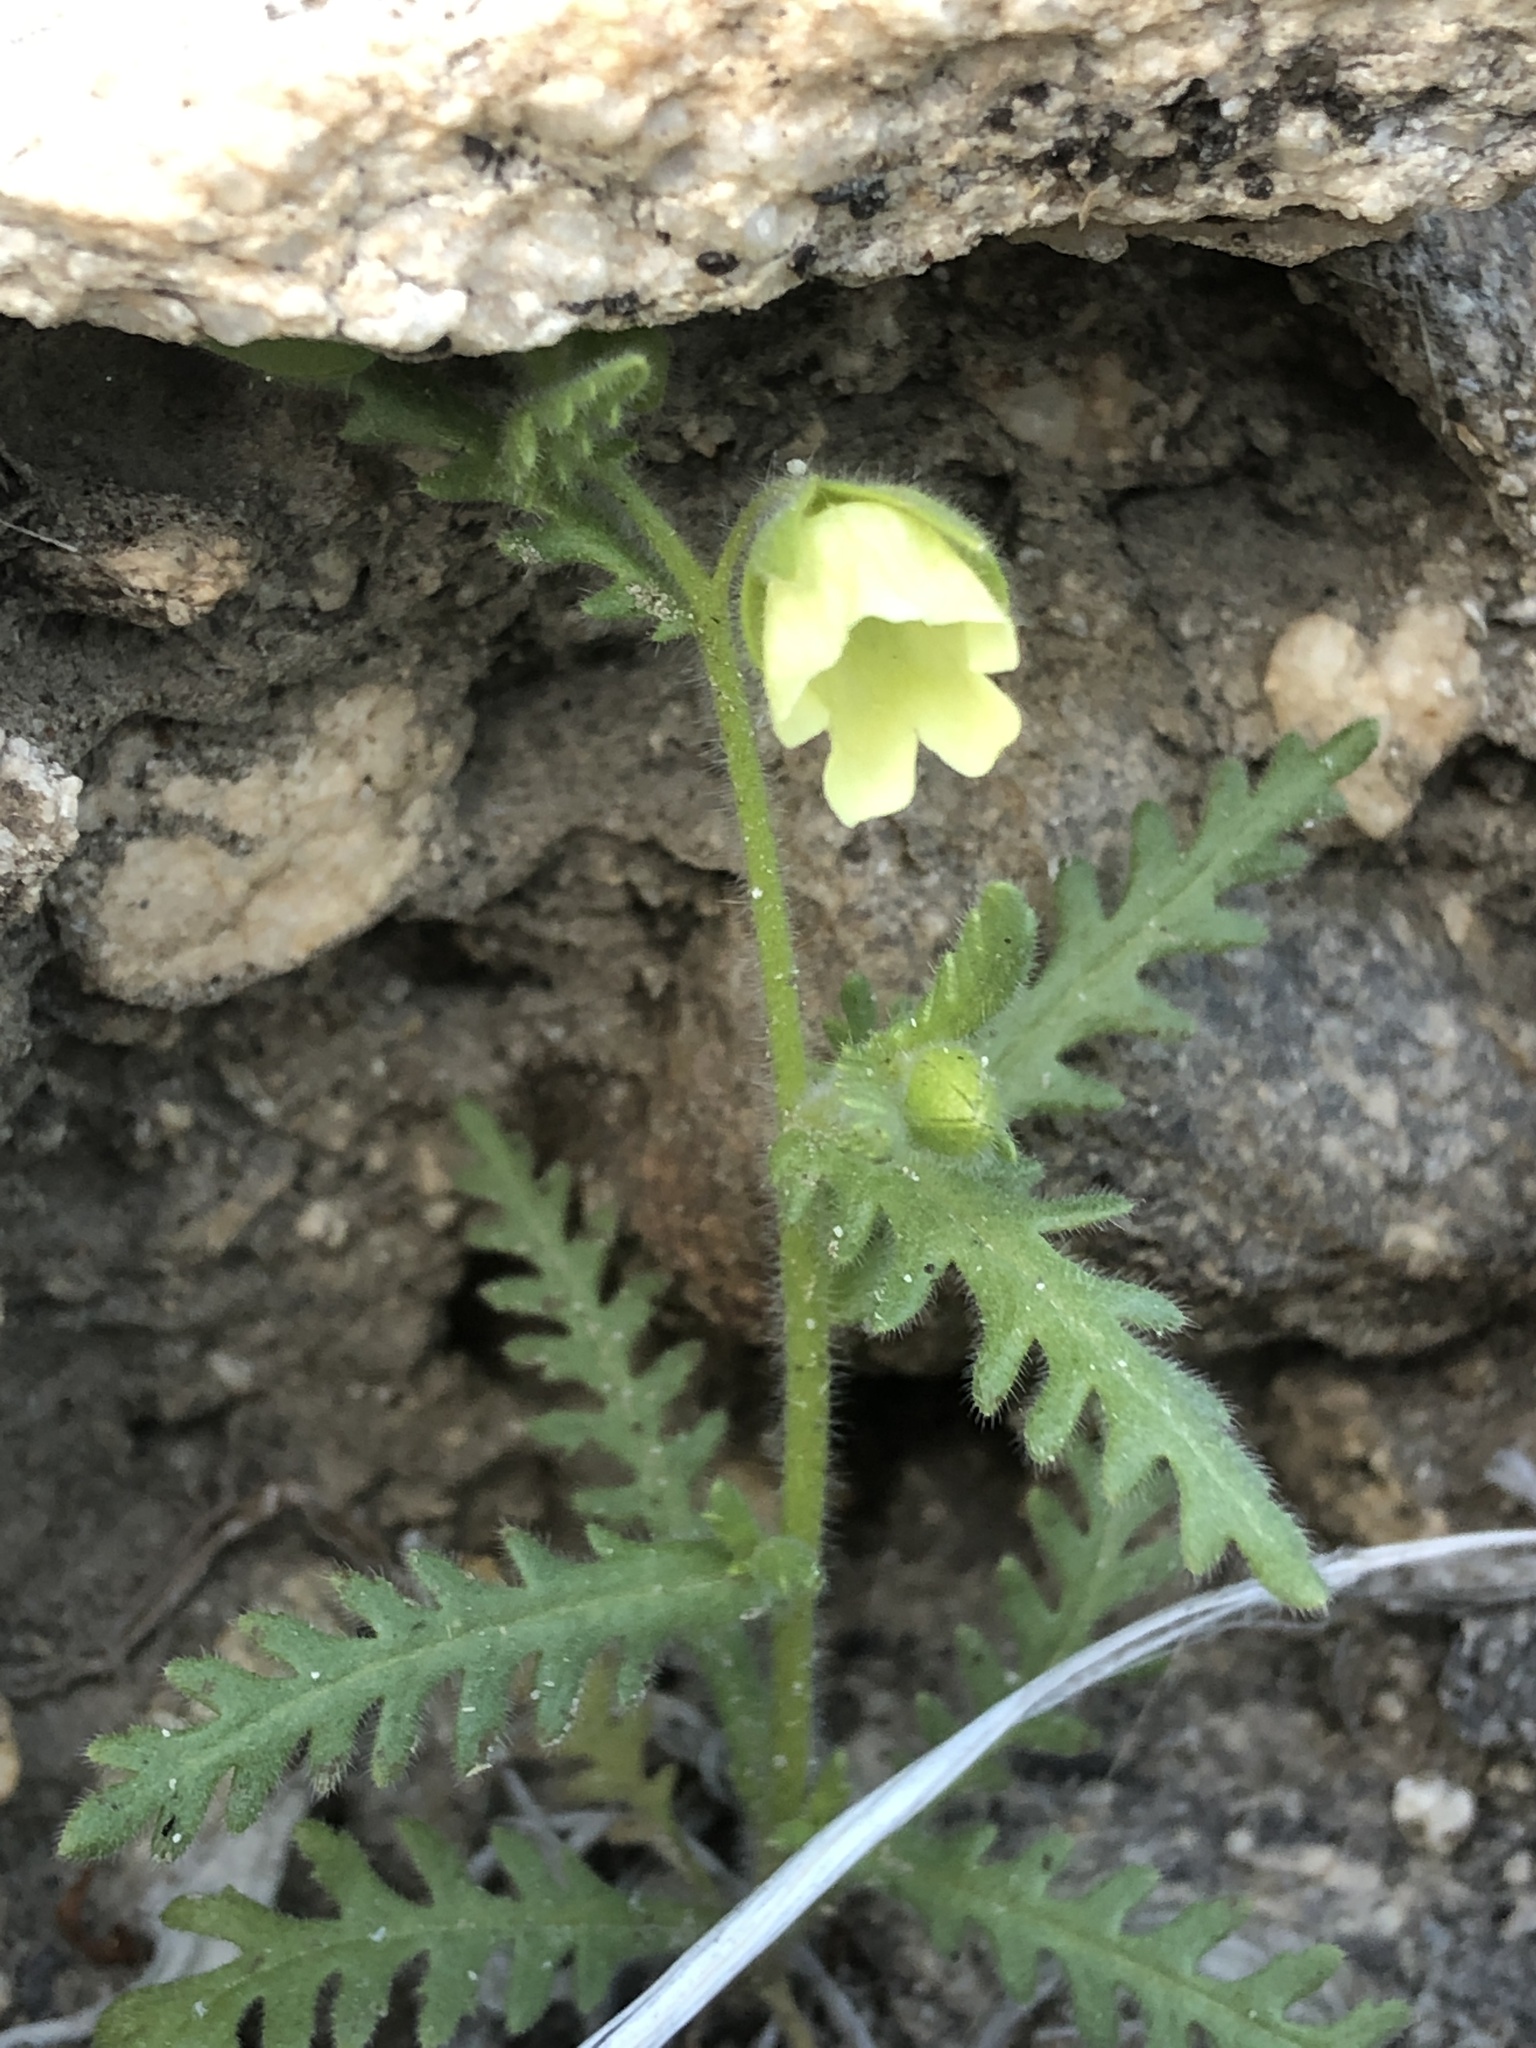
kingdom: Plantae
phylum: Tracheophyta
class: Magnoliopsida
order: Boraginales
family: Hydrophyllaceae
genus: Emmenanthe
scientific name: Emmenanthe penduliflora
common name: Whispering-bells
